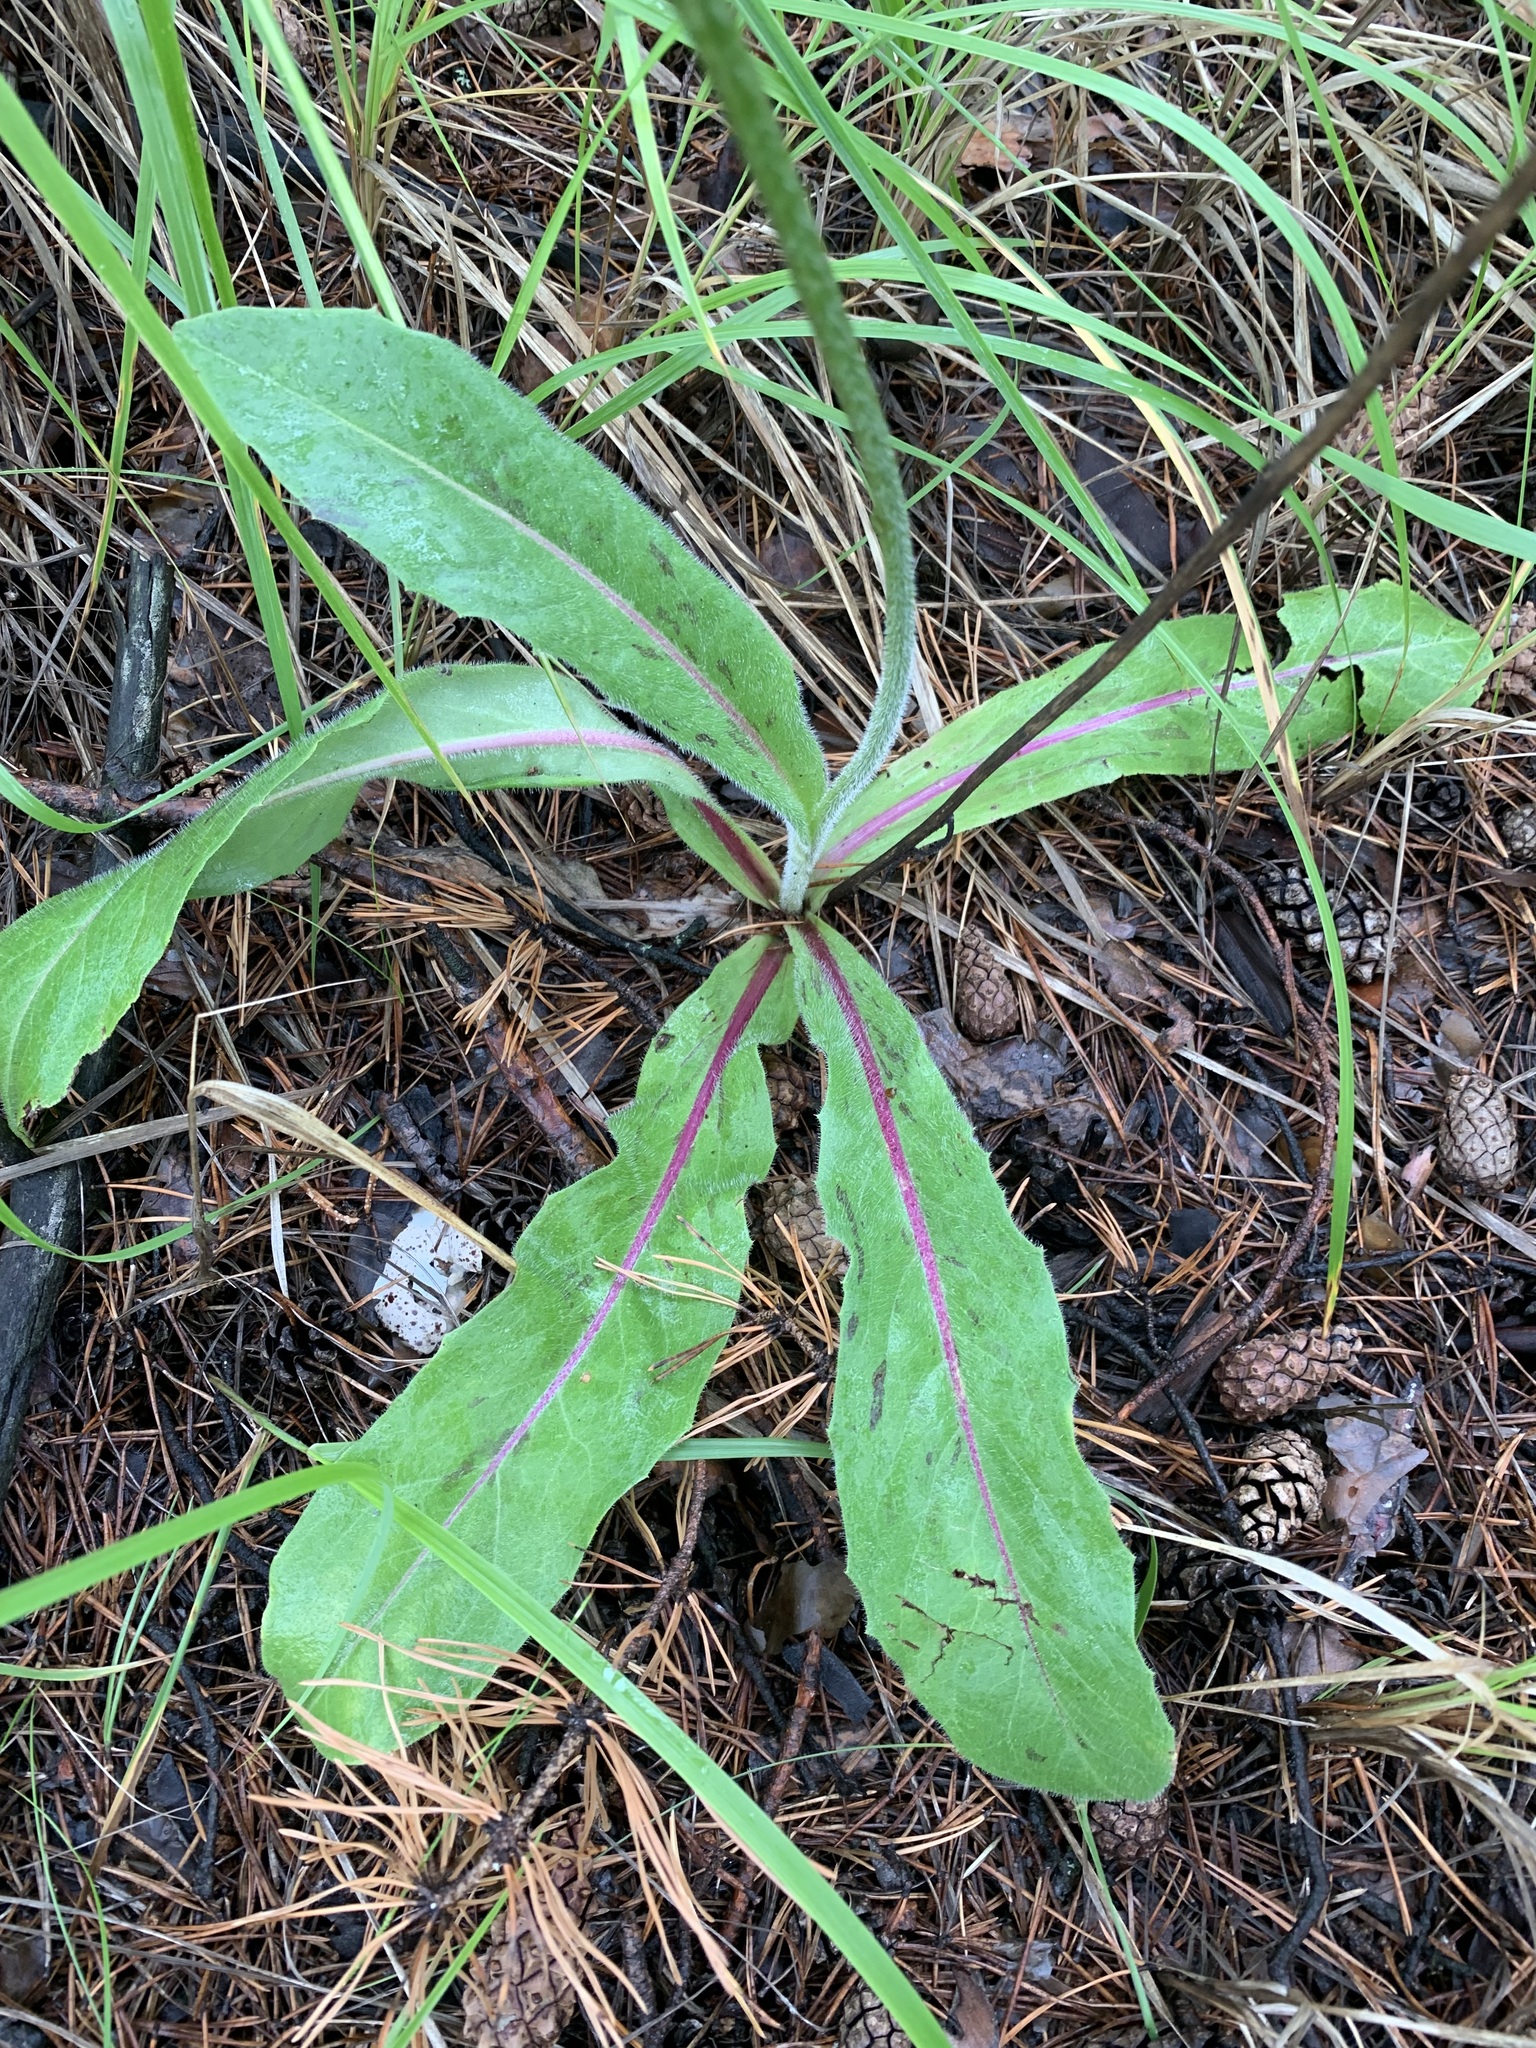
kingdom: Plantae
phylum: Tracheophyta
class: Magnoliopsida
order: Asterales
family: Asteraceae
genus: Trommsdorffia
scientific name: Trommsdorffia maculata
